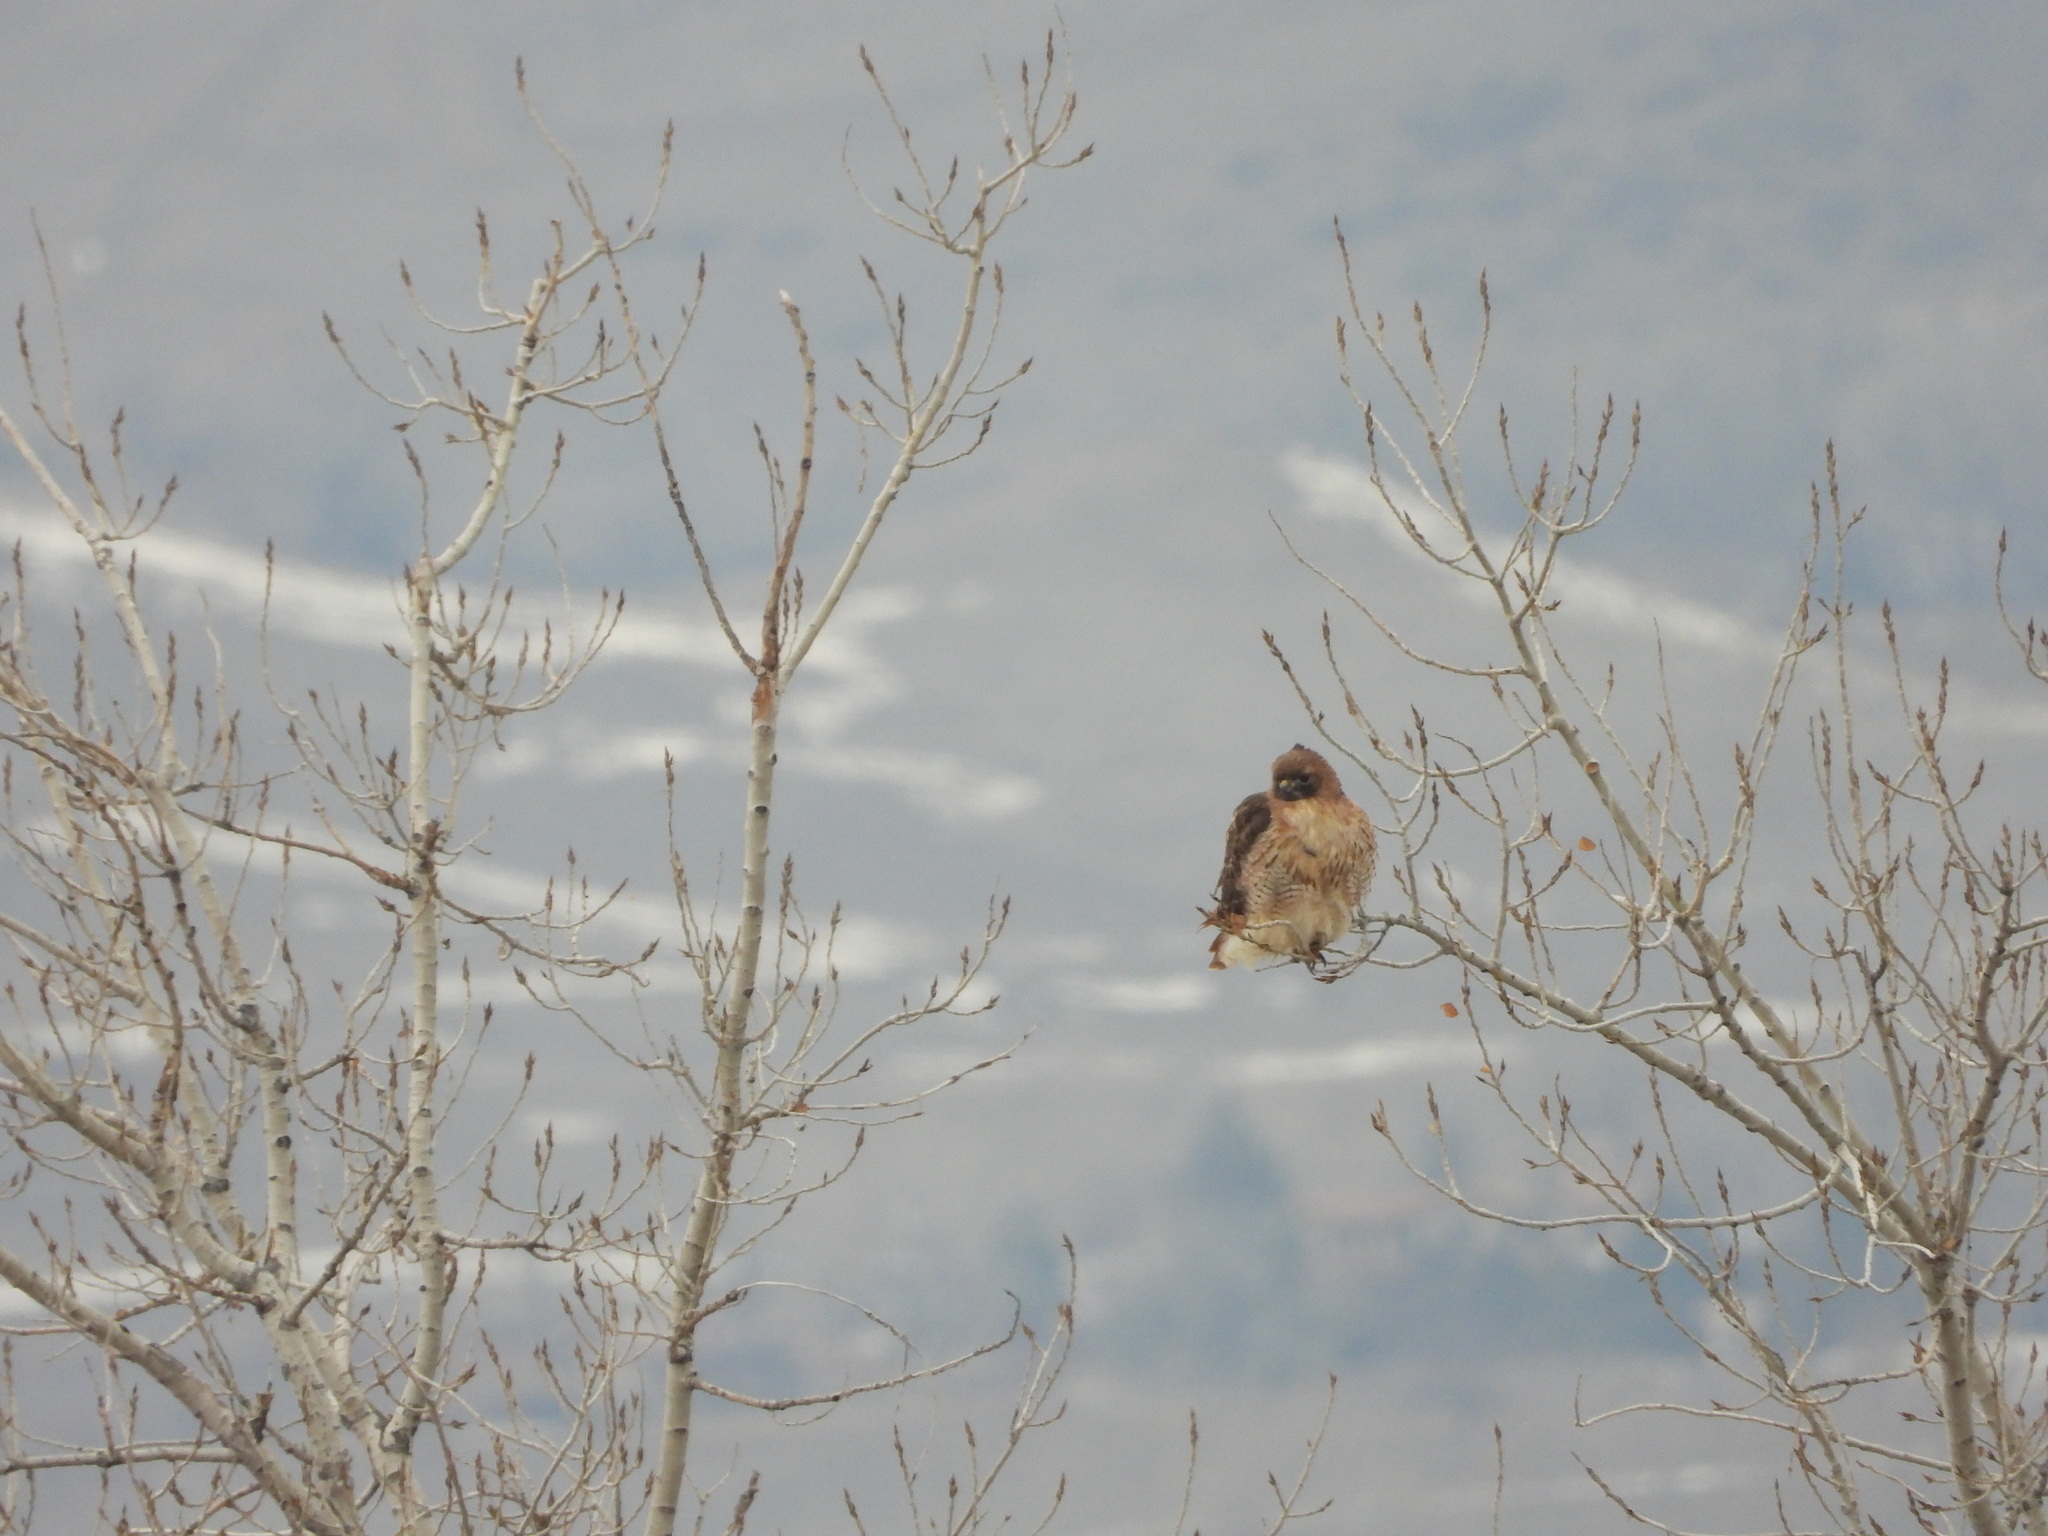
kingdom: Animalia
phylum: Chordata
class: Aves
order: Accipitriformes
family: Accipitridae
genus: Buteo
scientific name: Buteo jamaicensis
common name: Red-tailed hawk
